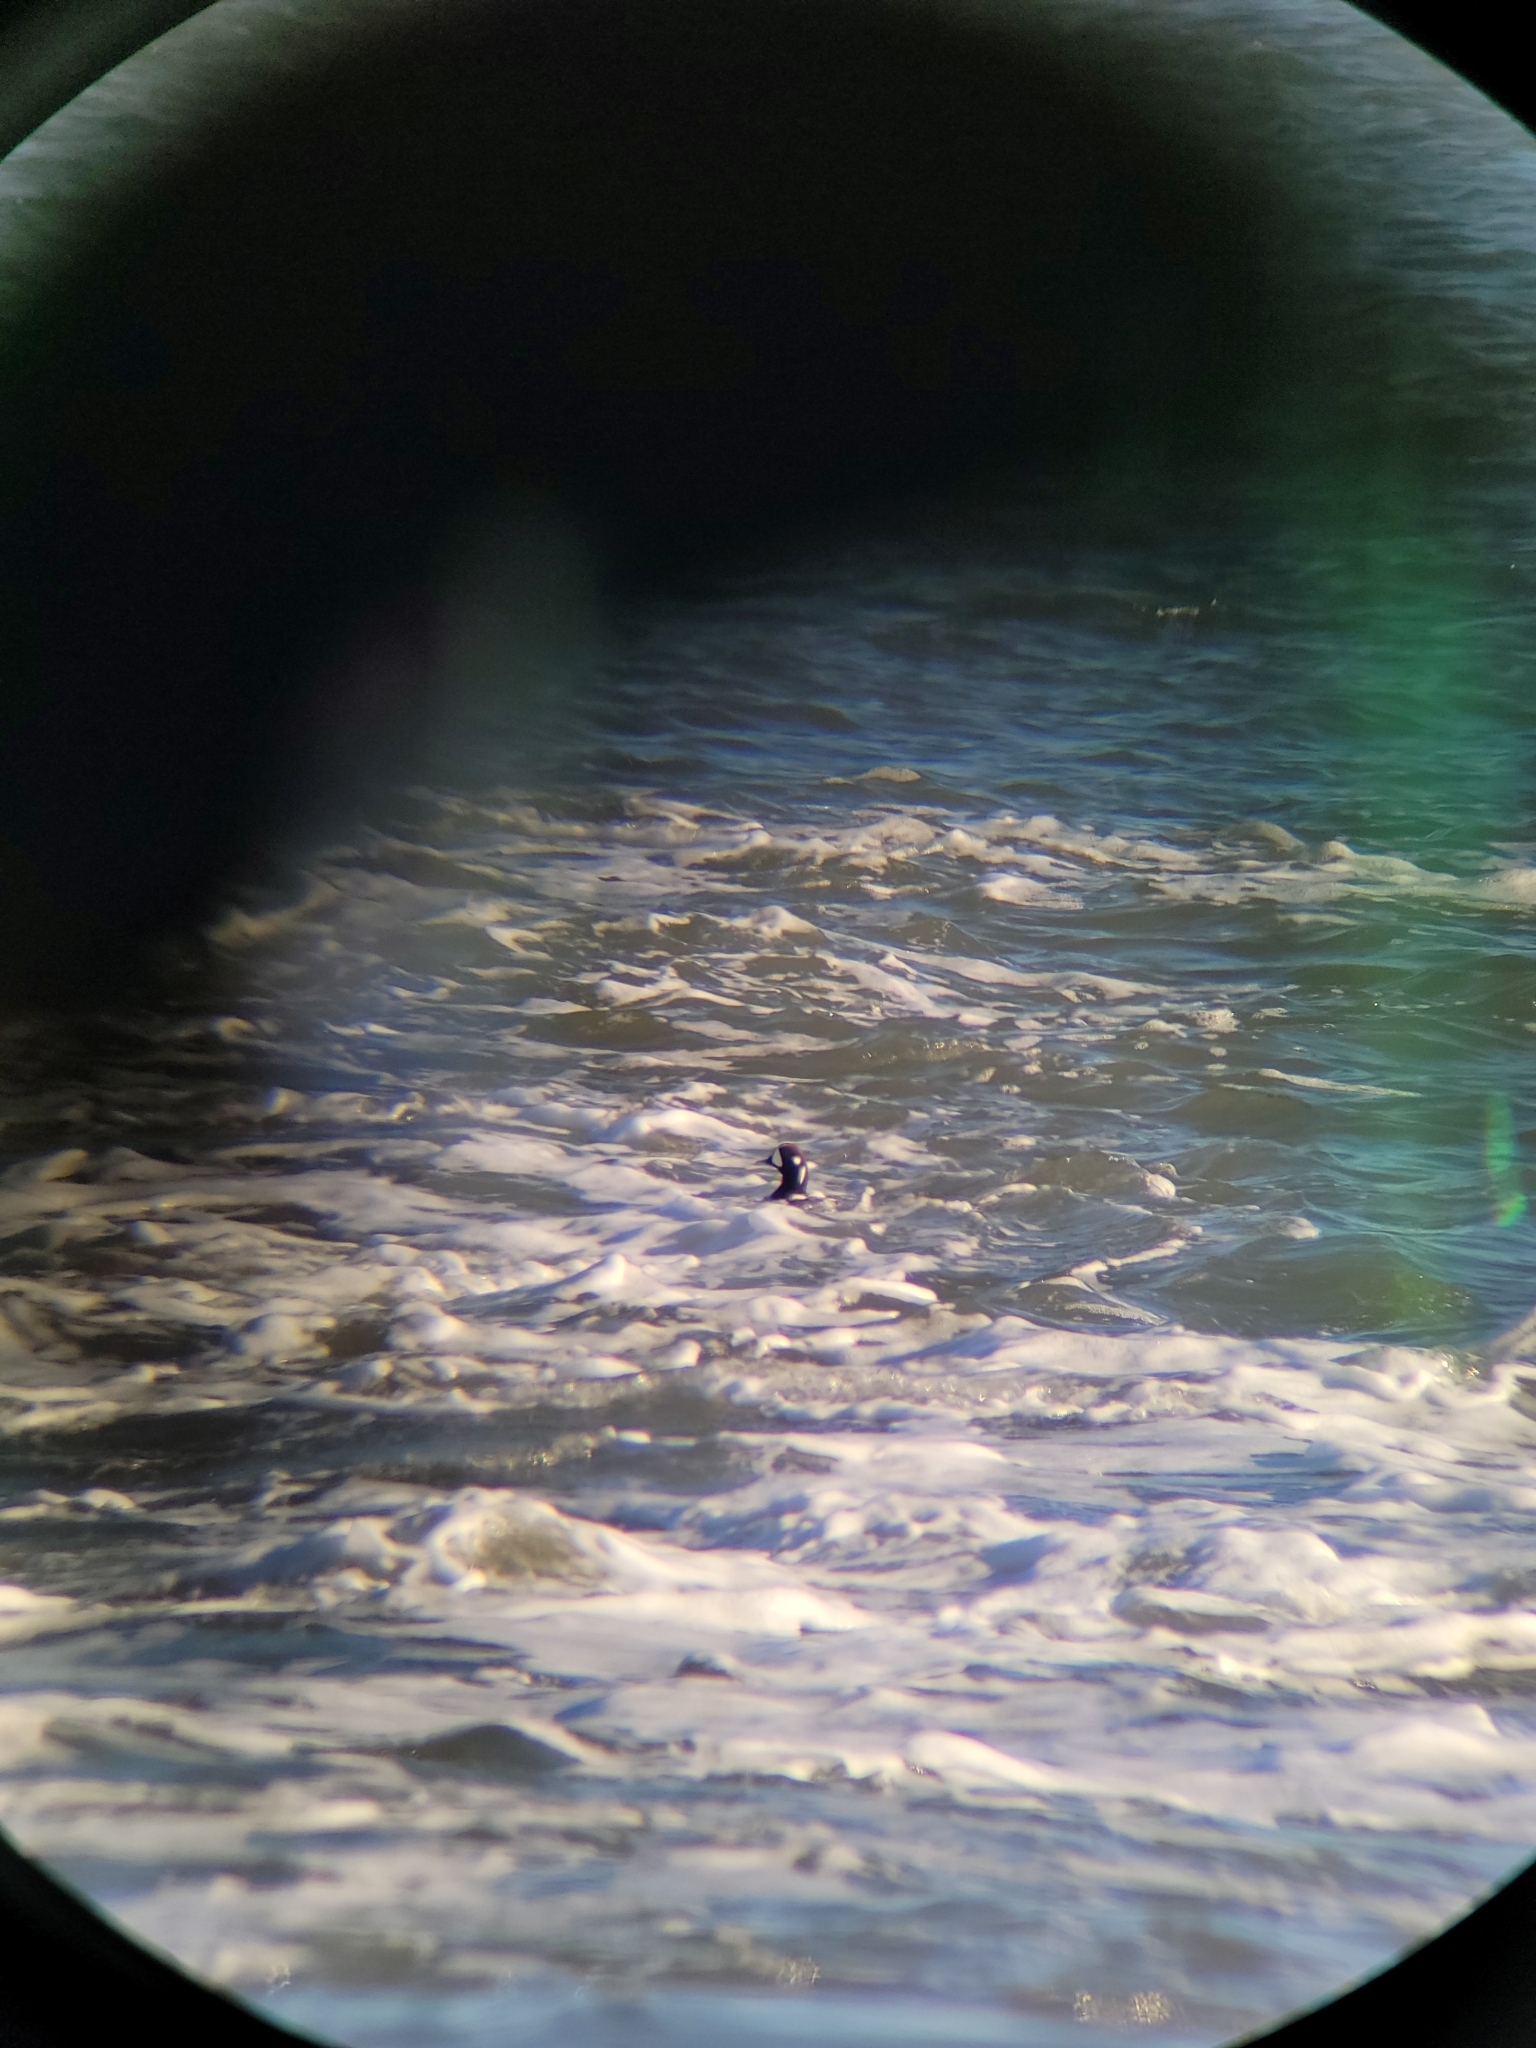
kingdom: Animalia
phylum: Chordata
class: Aves
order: Anseriformes
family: Anatidae
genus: Histrionicus
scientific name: Histrionicus histrionicus
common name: Harlequin duck
